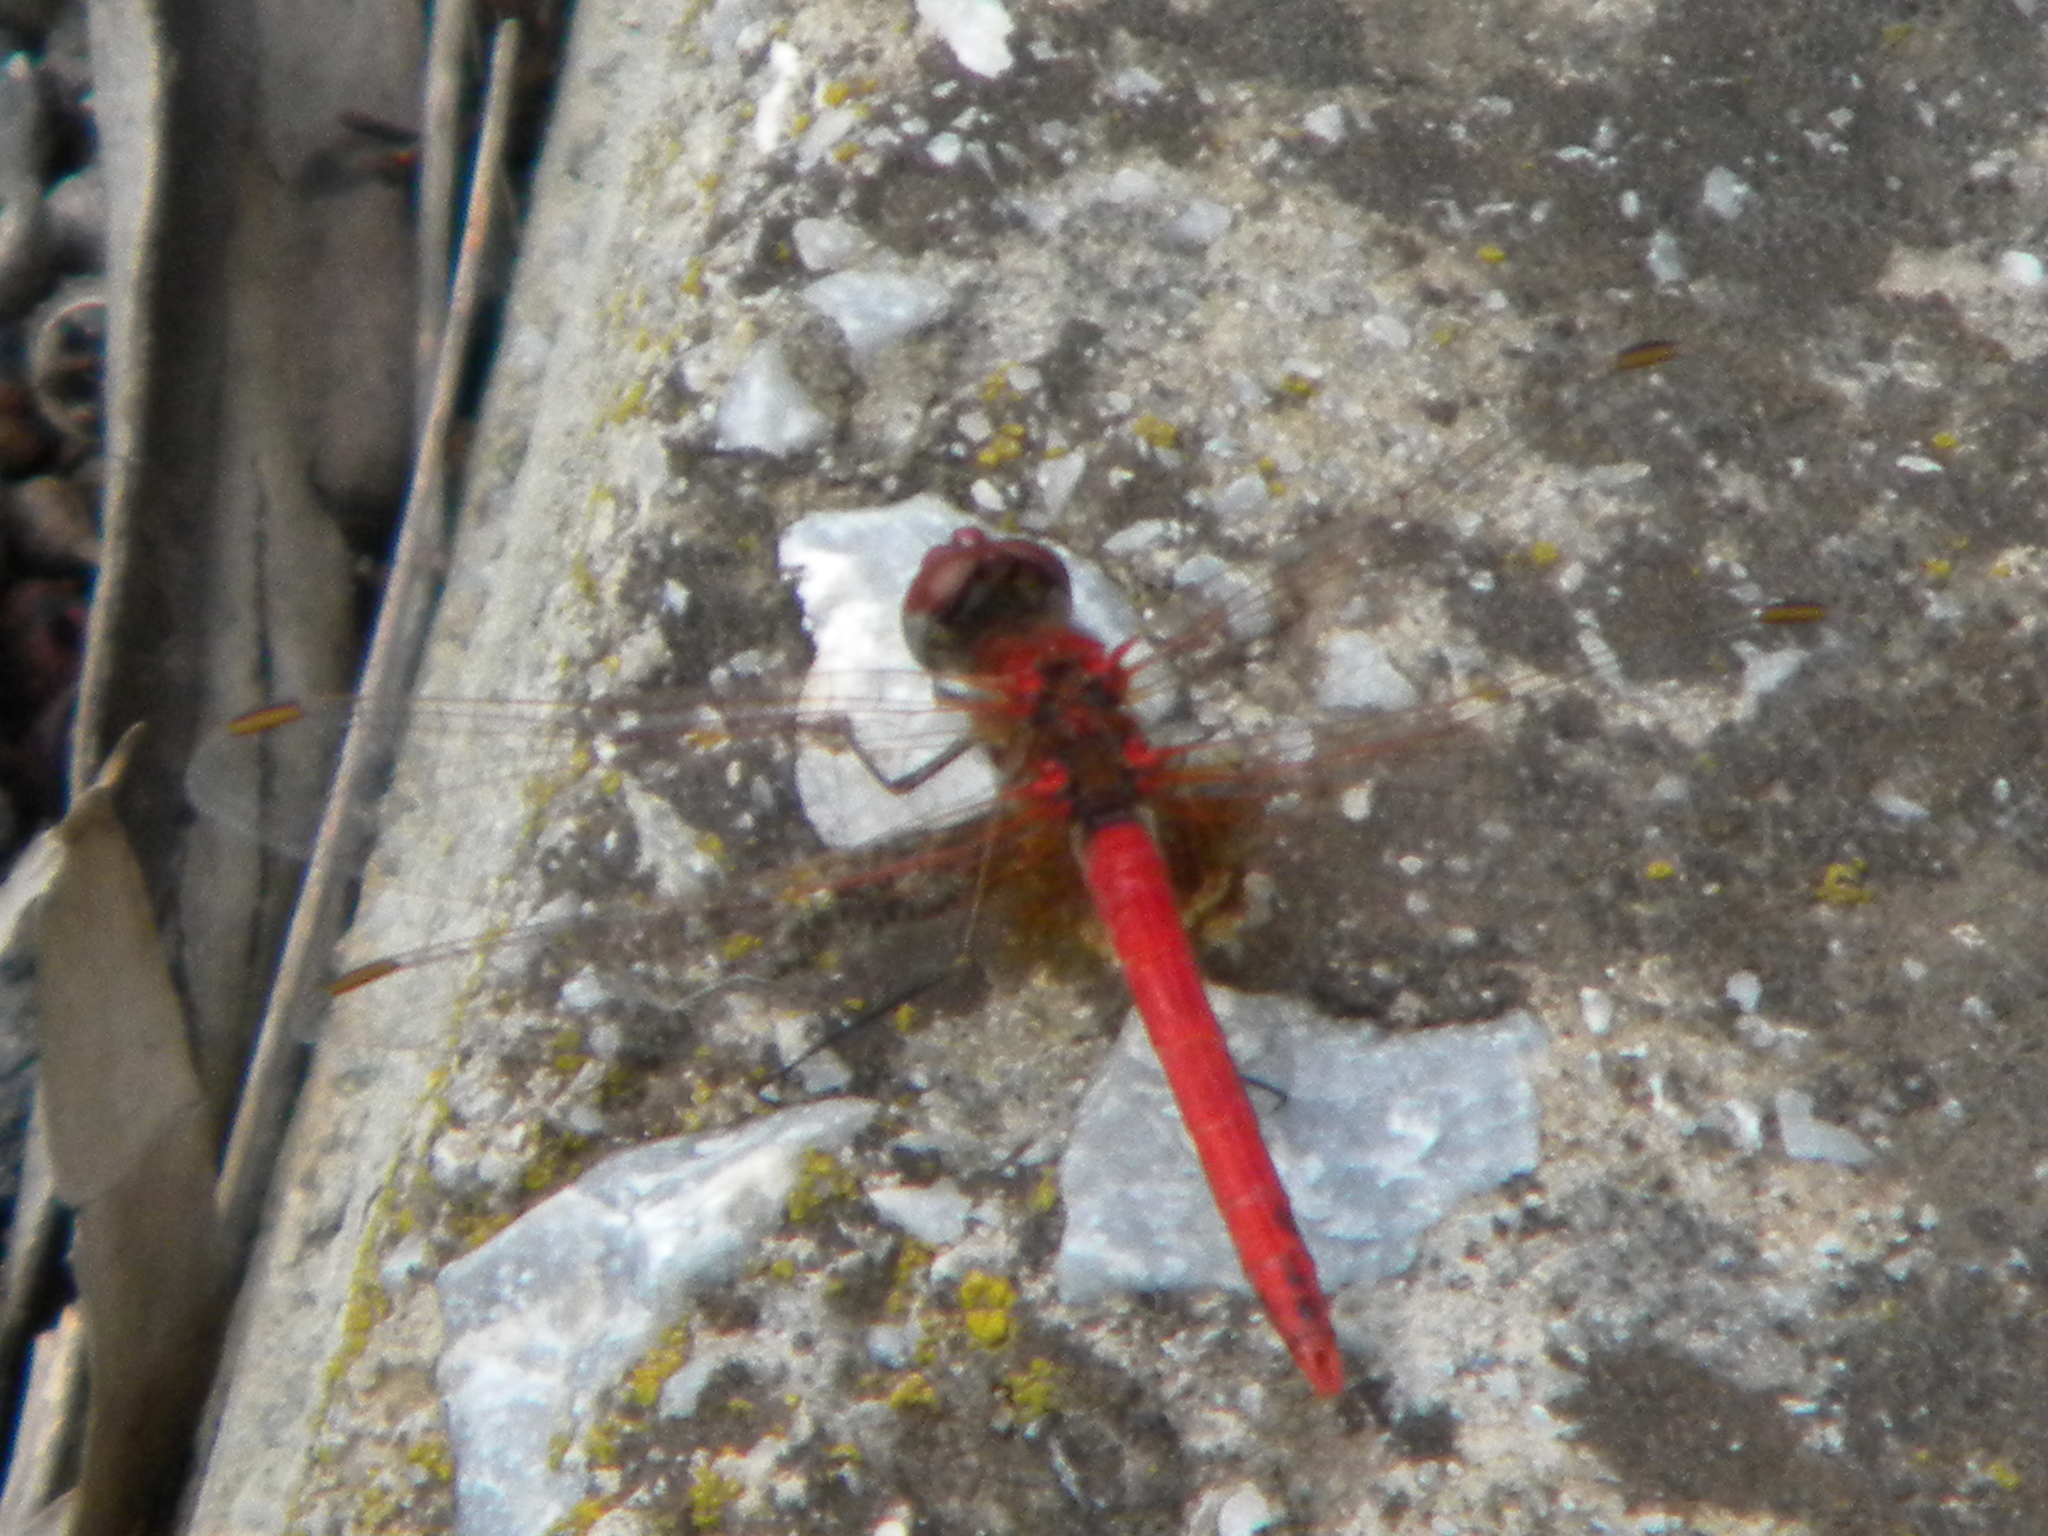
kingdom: Animalia
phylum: Arthropoda
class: Insecta
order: Odonata
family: Libellulidae
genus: Sympetrum
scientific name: Sympetrum fonscolombii
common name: Red-veined darter
